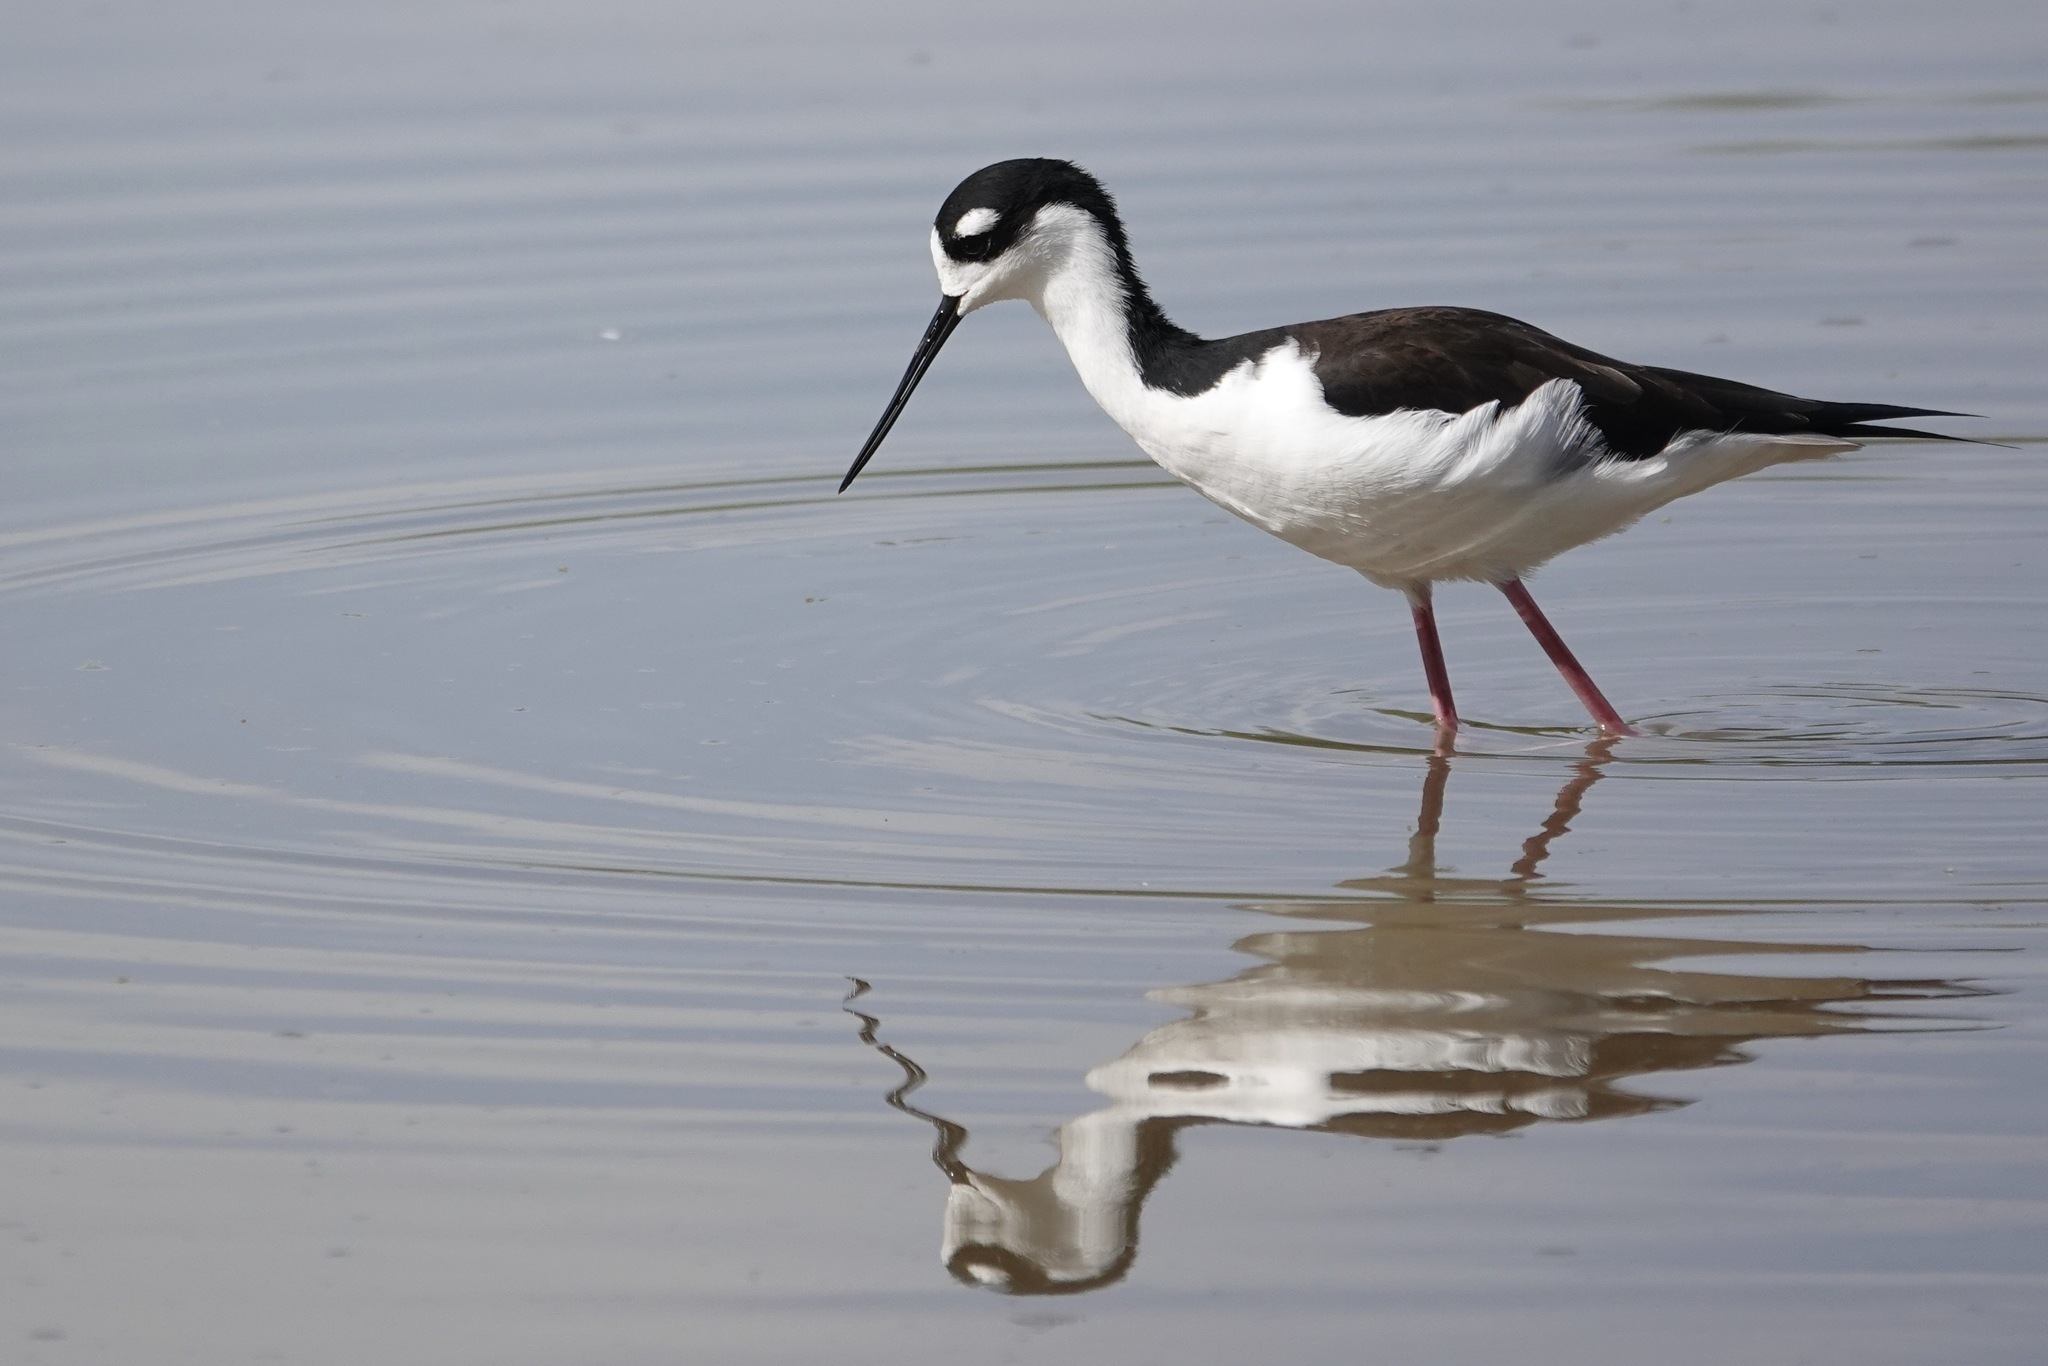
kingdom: Animalia
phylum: Chordata
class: Aves
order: Charadriiformes
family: Recurvirostridae
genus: Himantopus
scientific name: Himantopus mexicanus
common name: Black-necked stilt
